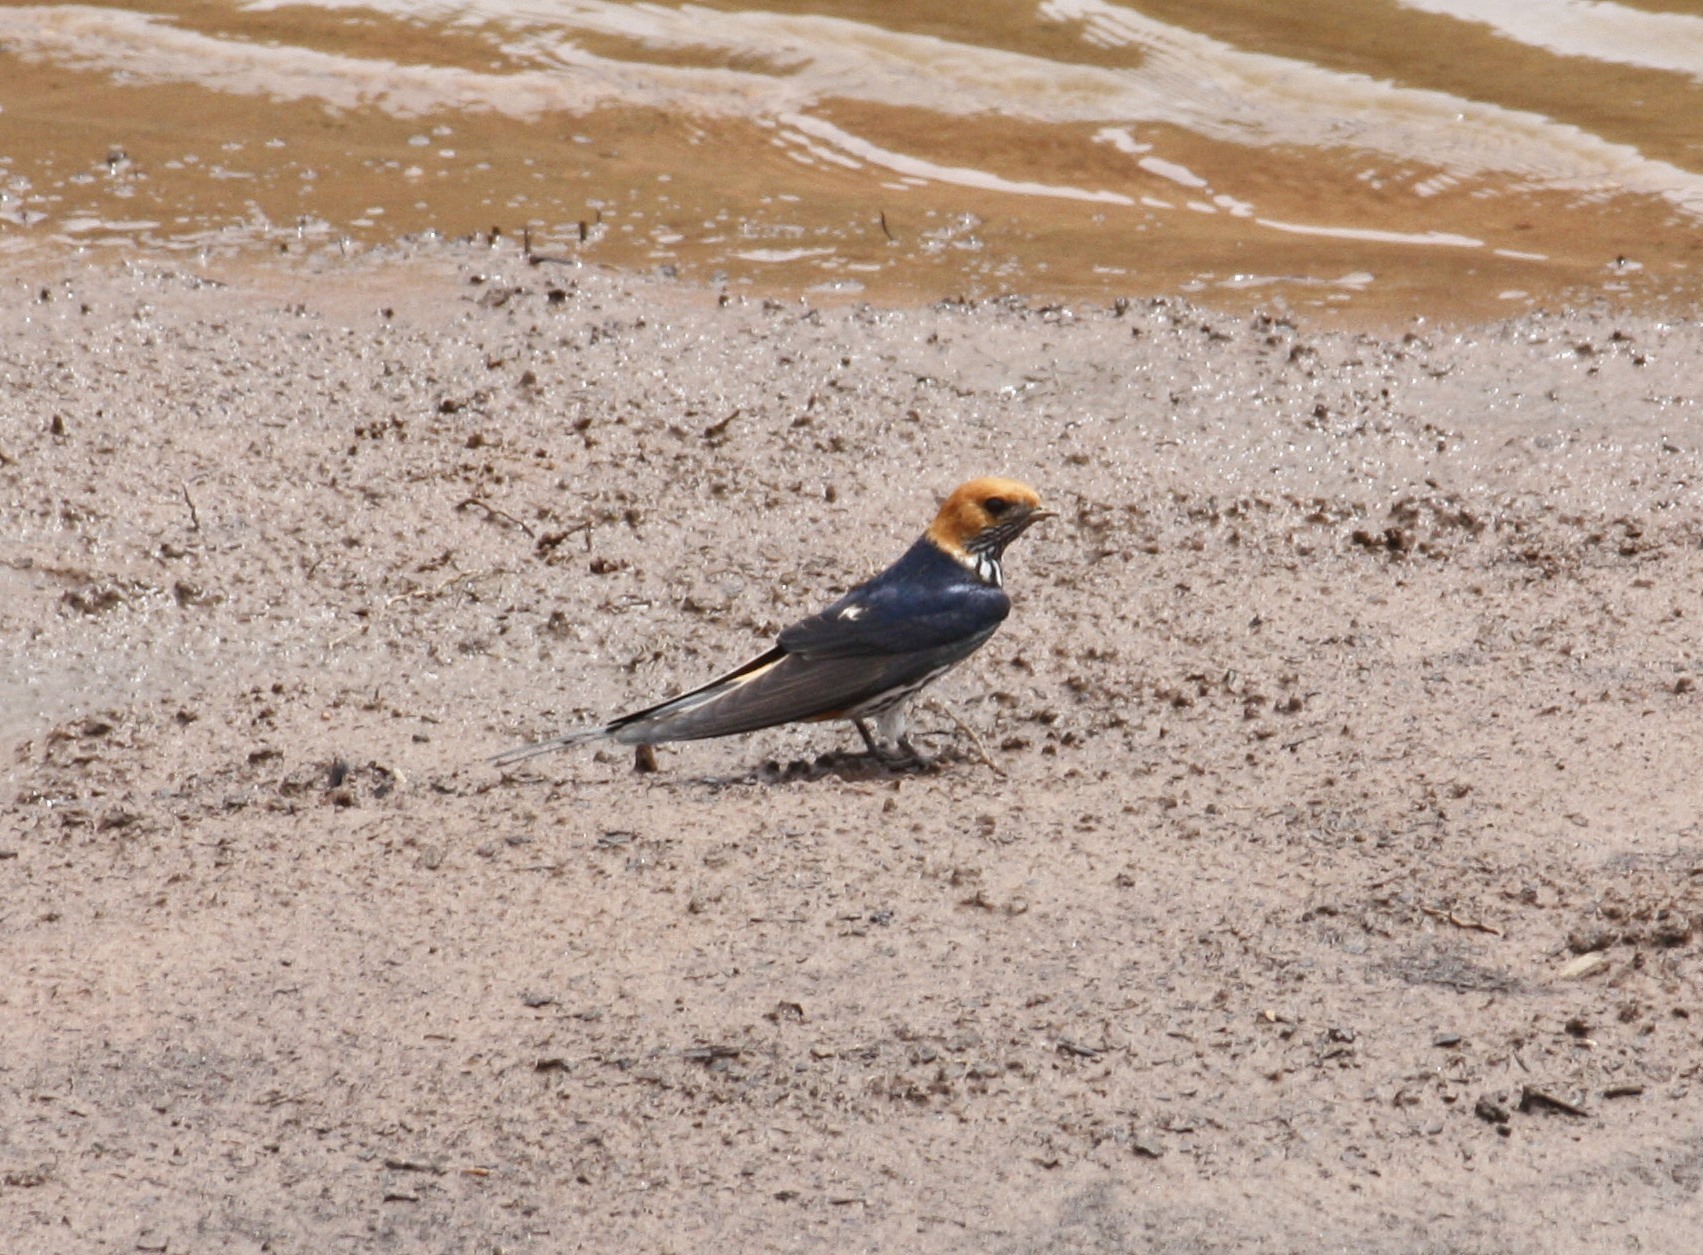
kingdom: Animalia
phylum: Chordata
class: Aves
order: Passeriformes
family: Hirundinidae
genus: Cecropis
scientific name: Cecropis abyssinica
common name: Lesser striped-swallow
